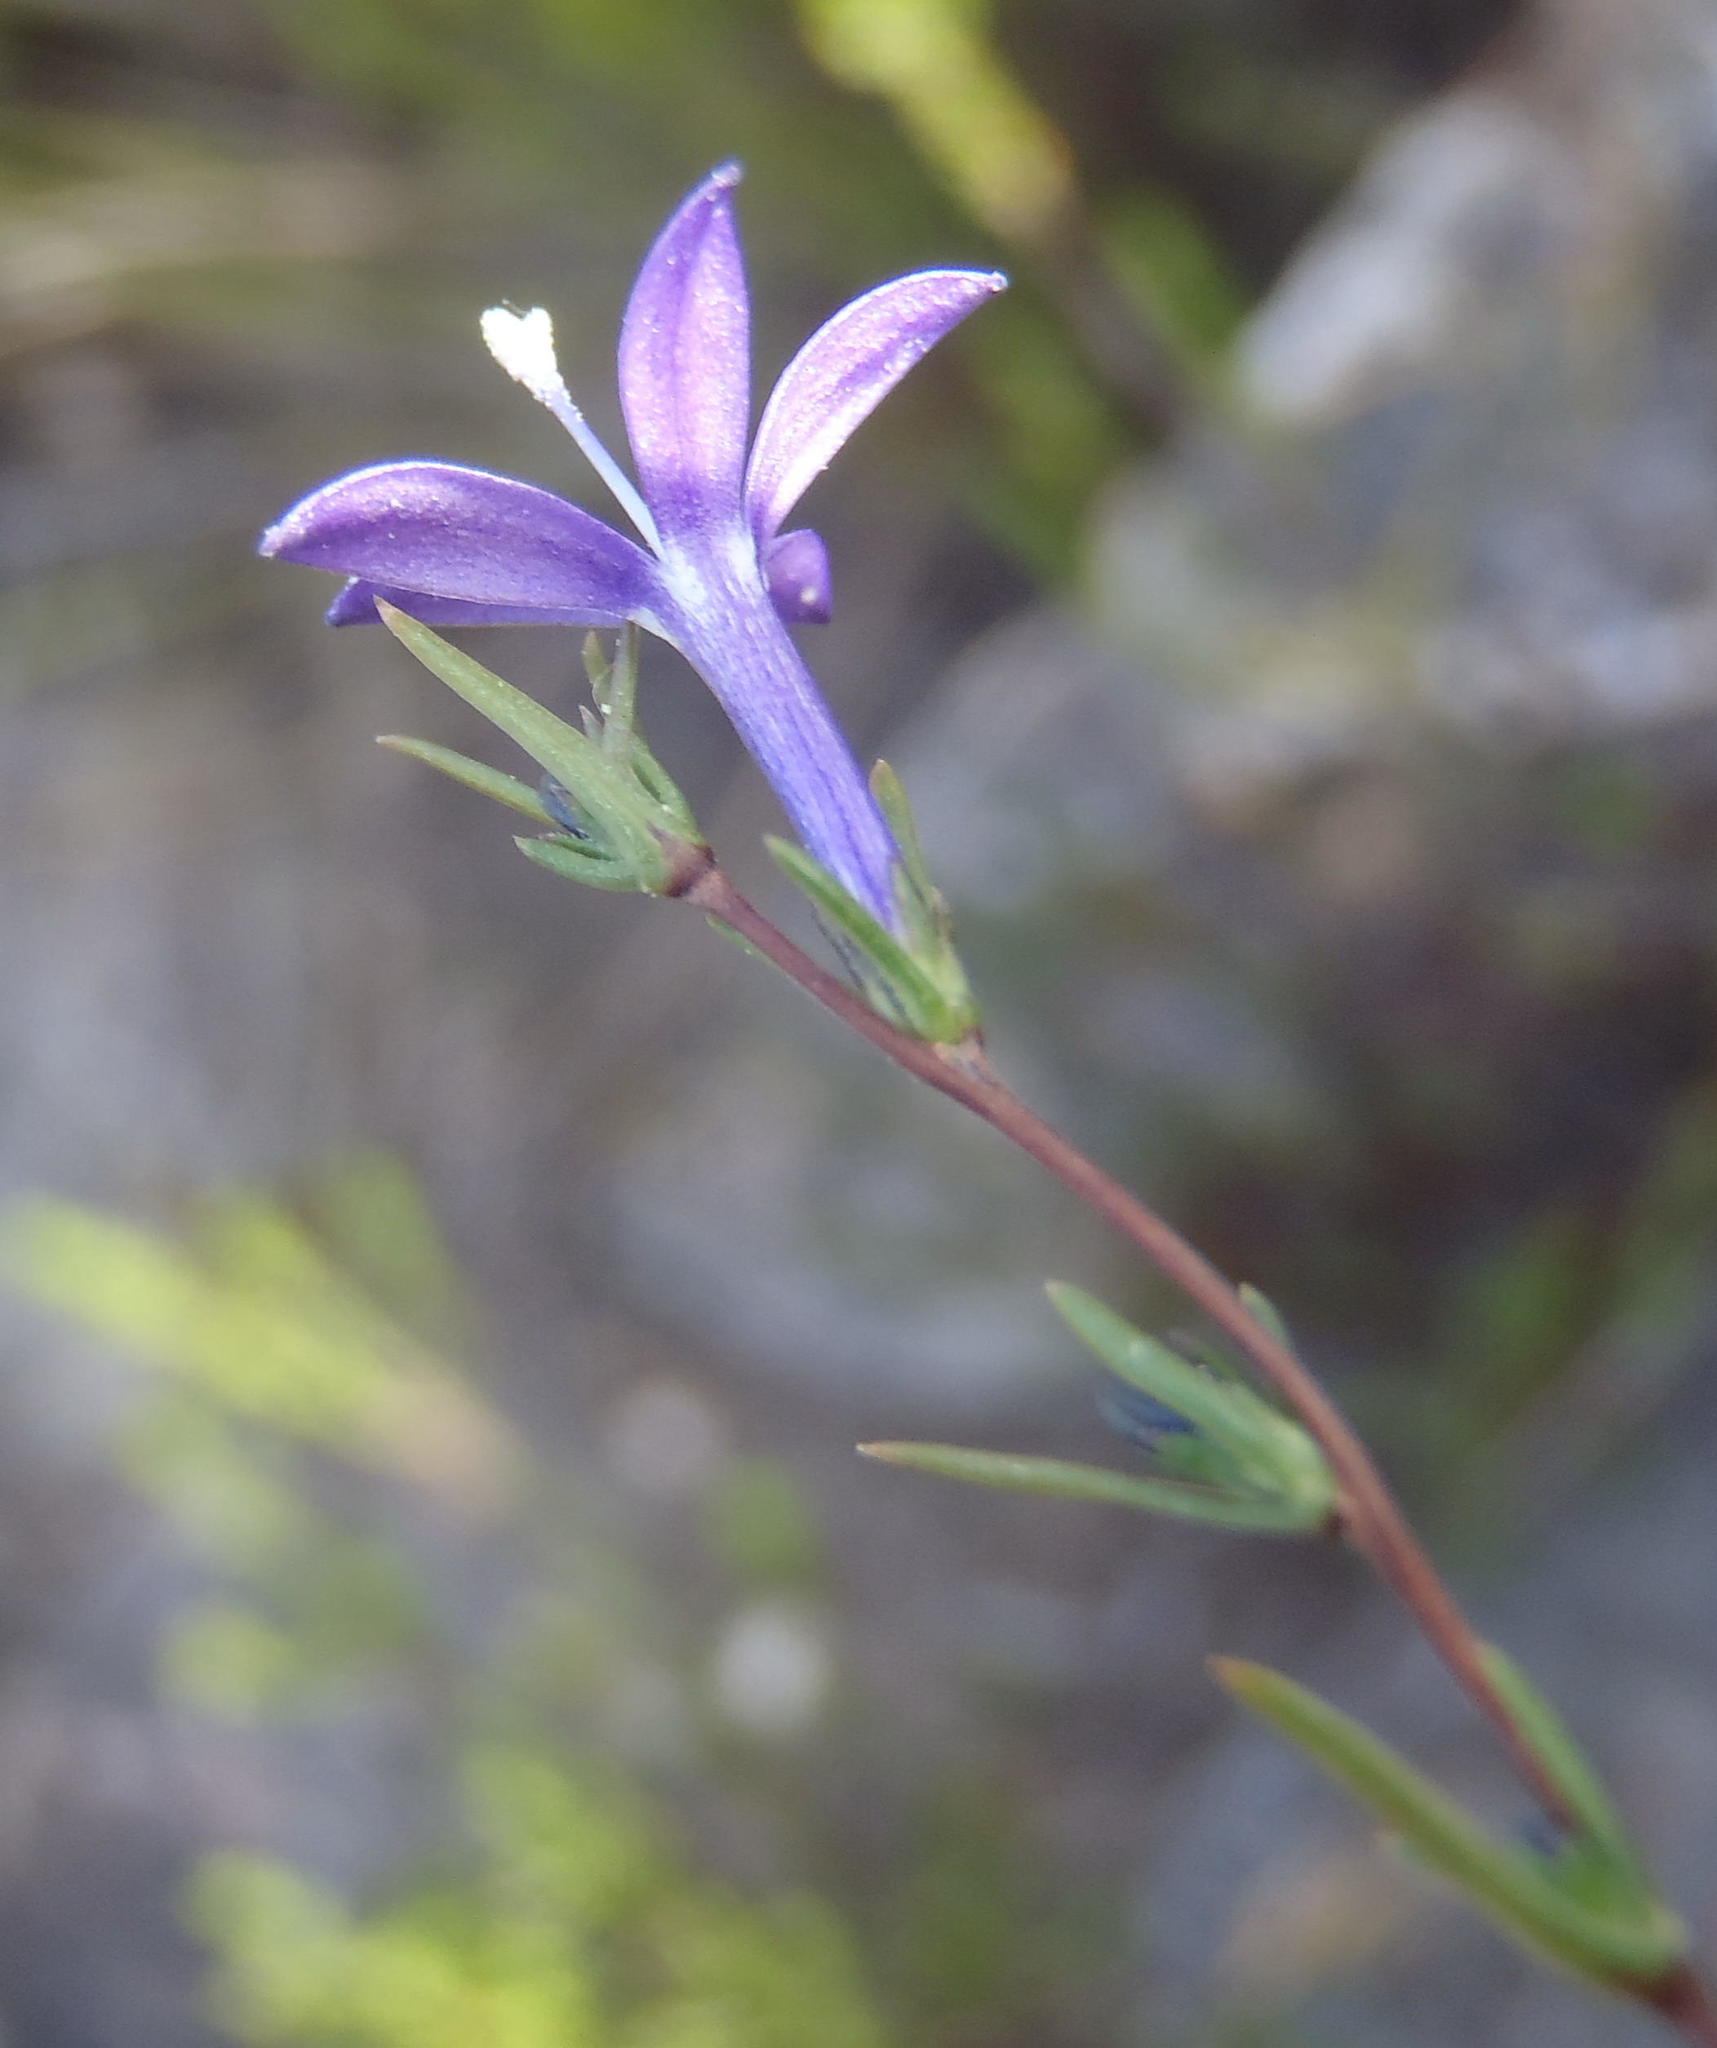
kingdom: Plantae
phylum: Tracheophyta
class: Magnoliopsida
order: Asterales
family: Campanulaceae
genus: Theilera
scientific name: Theilera guthriei
